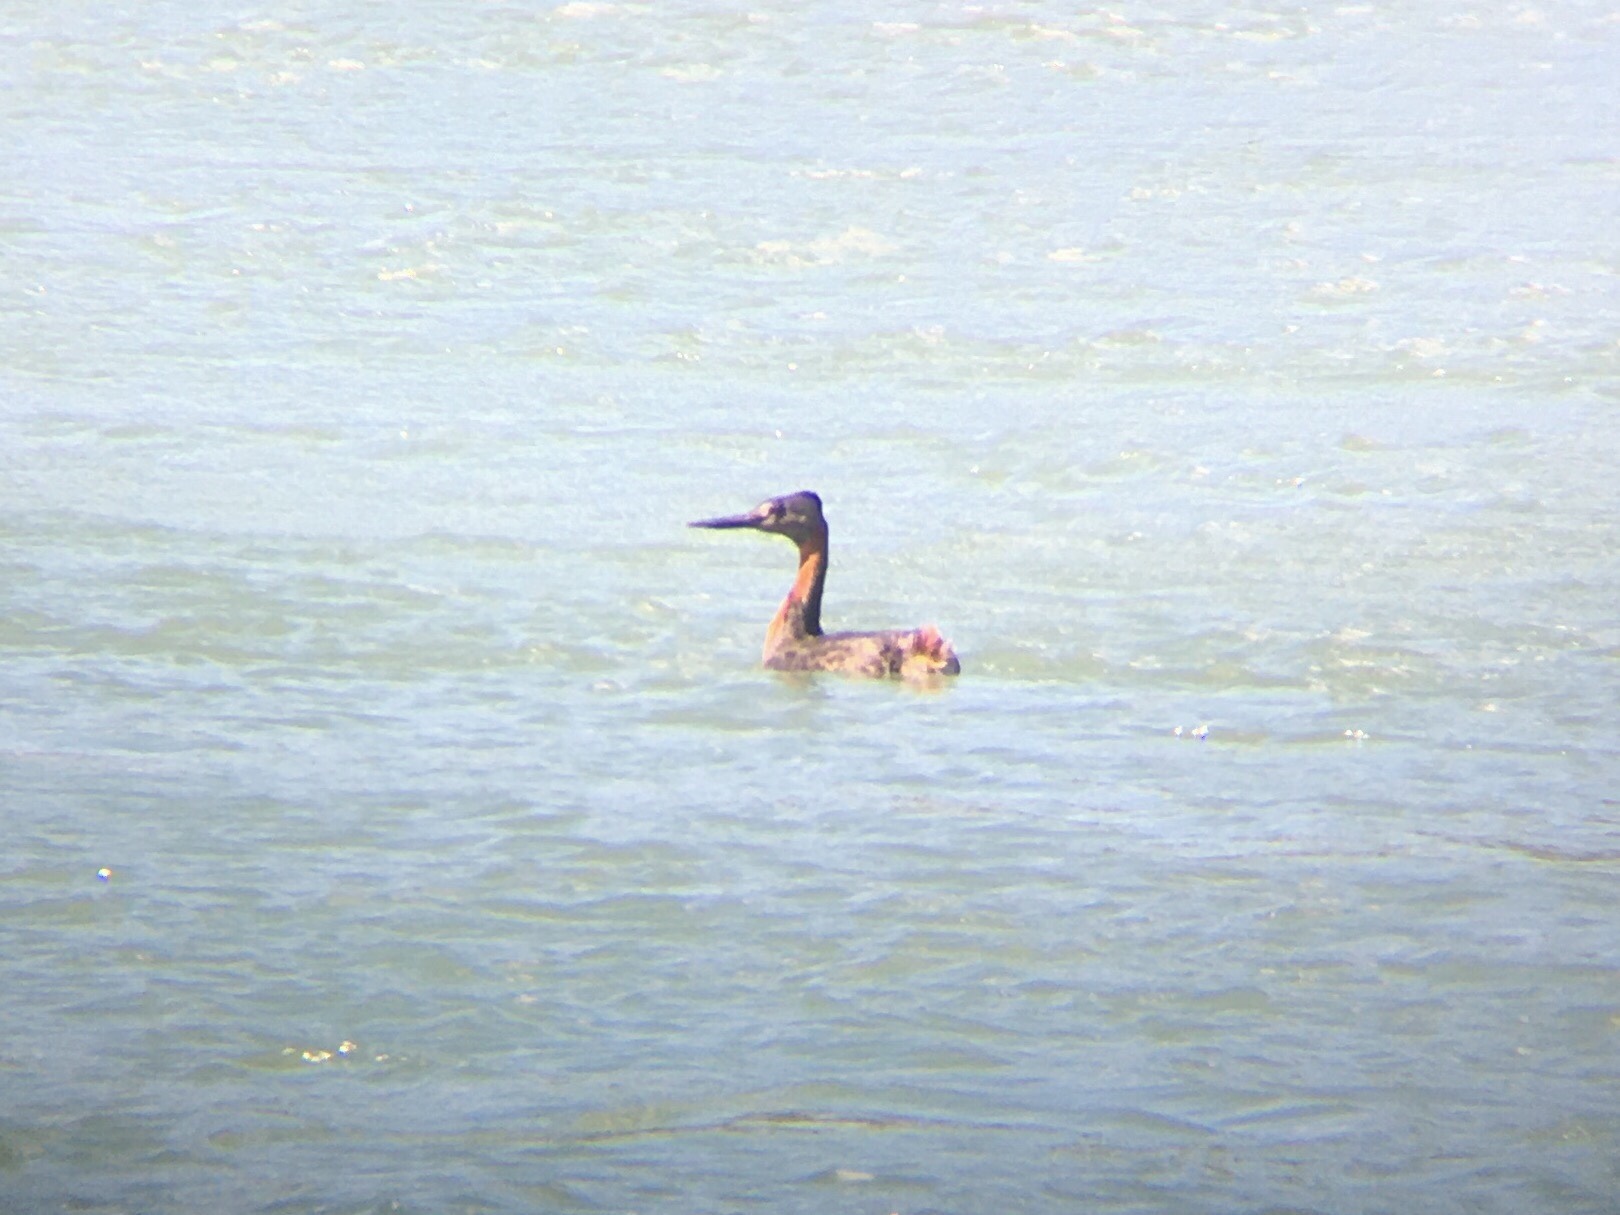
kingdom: Animalia
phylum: Chordata
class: Aves
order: Podicipediformes
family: Podicipedidae
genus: Podiceps
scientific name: Podiceps major
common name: Great grebe
